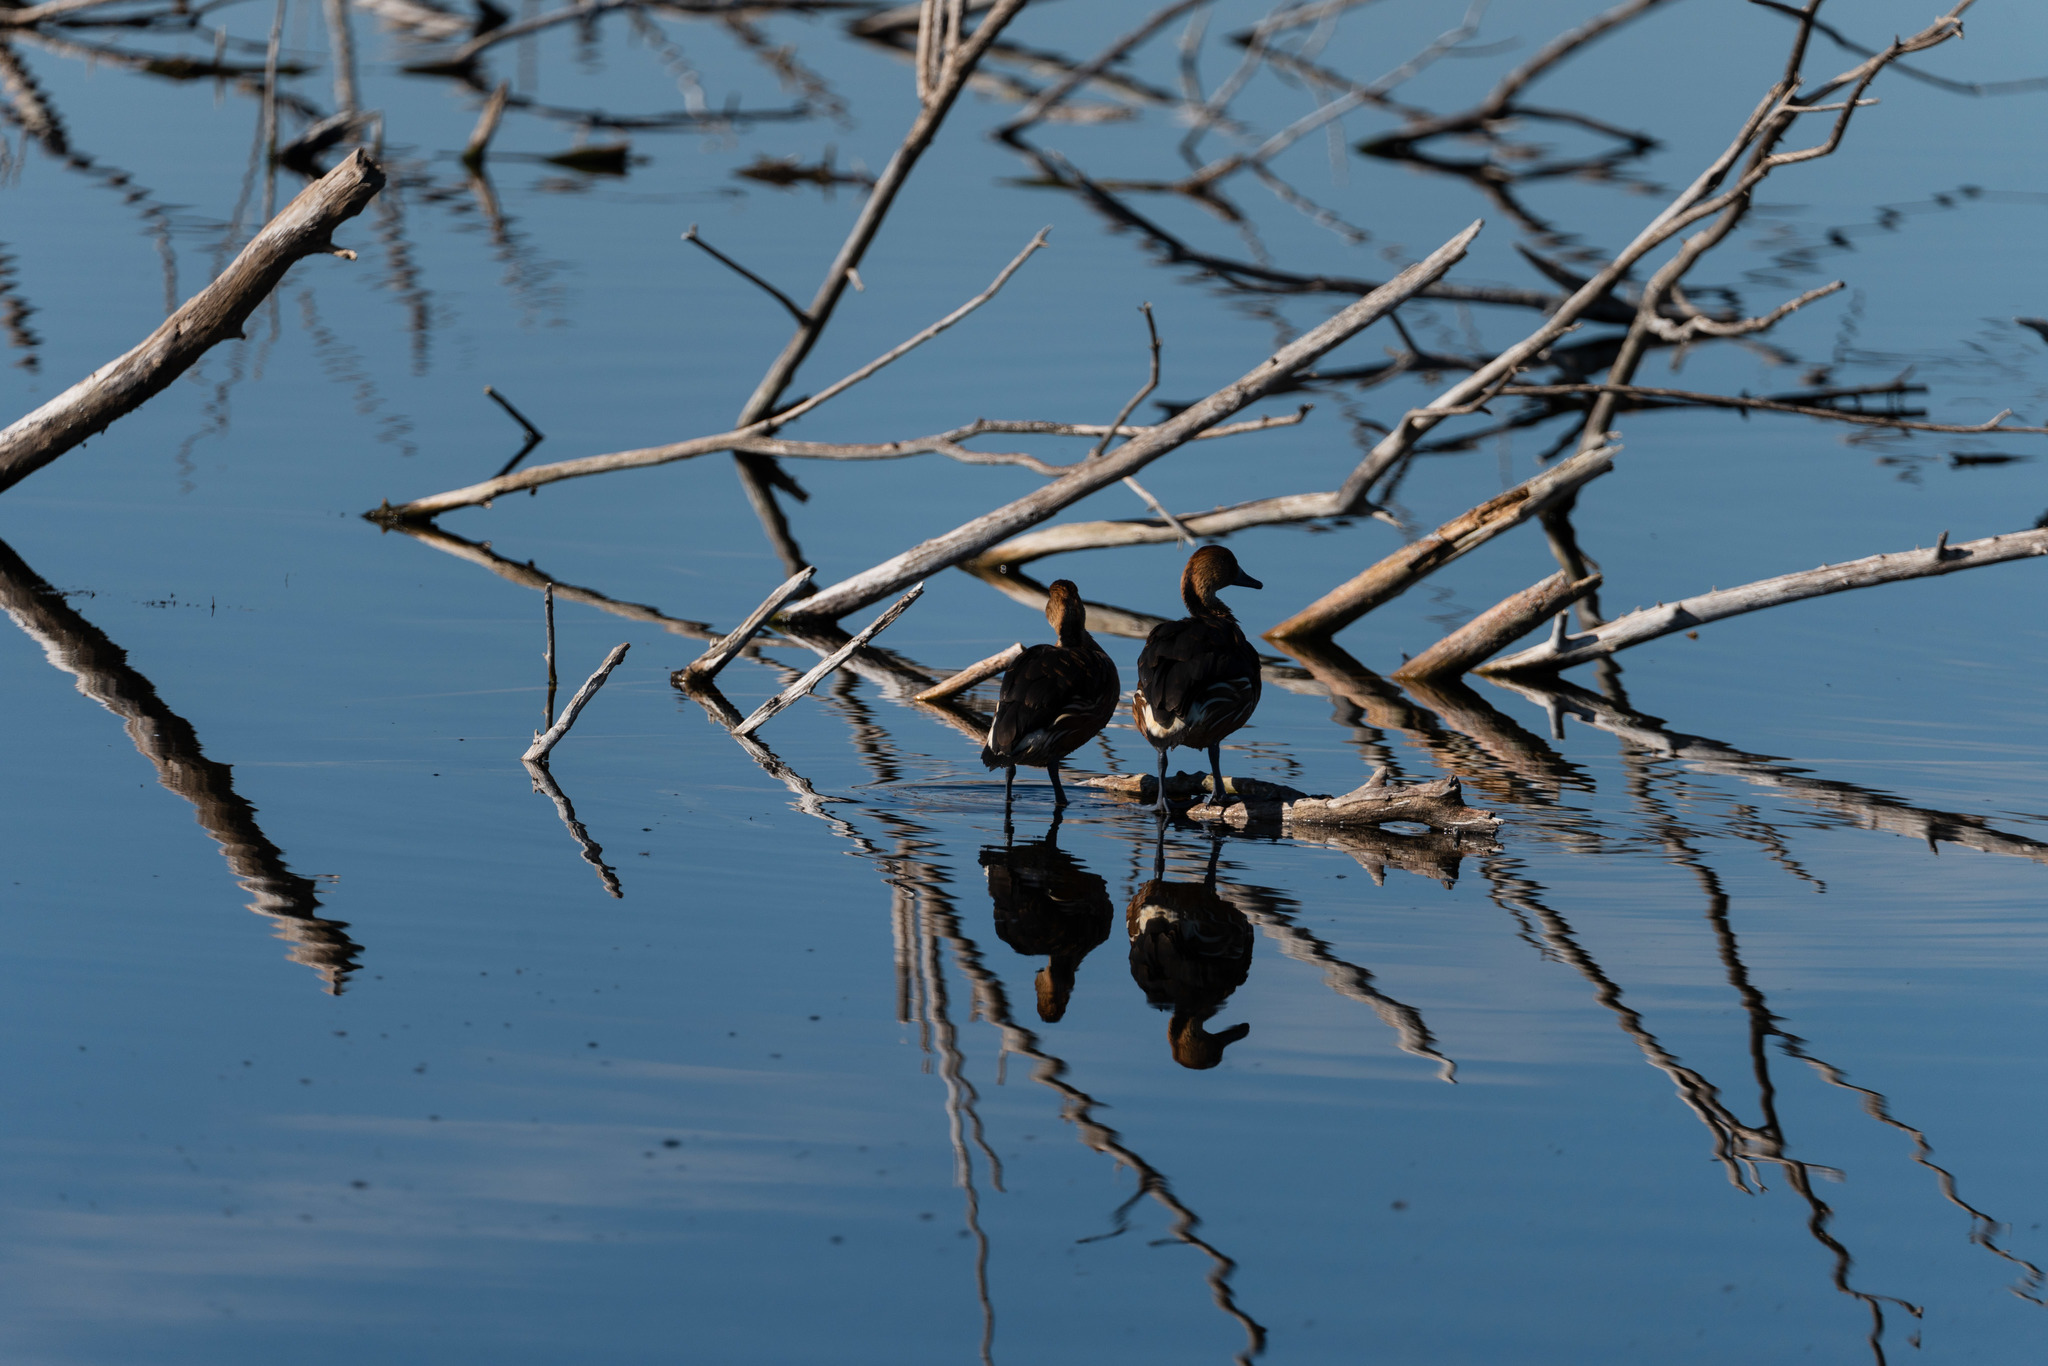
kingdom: Animalia
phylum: Chordata
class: Aves
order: Anseriformes
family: Anatidae
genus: Dendrocygna
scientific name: Dendrocygna bicolor
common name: Fulvous whistling duck
